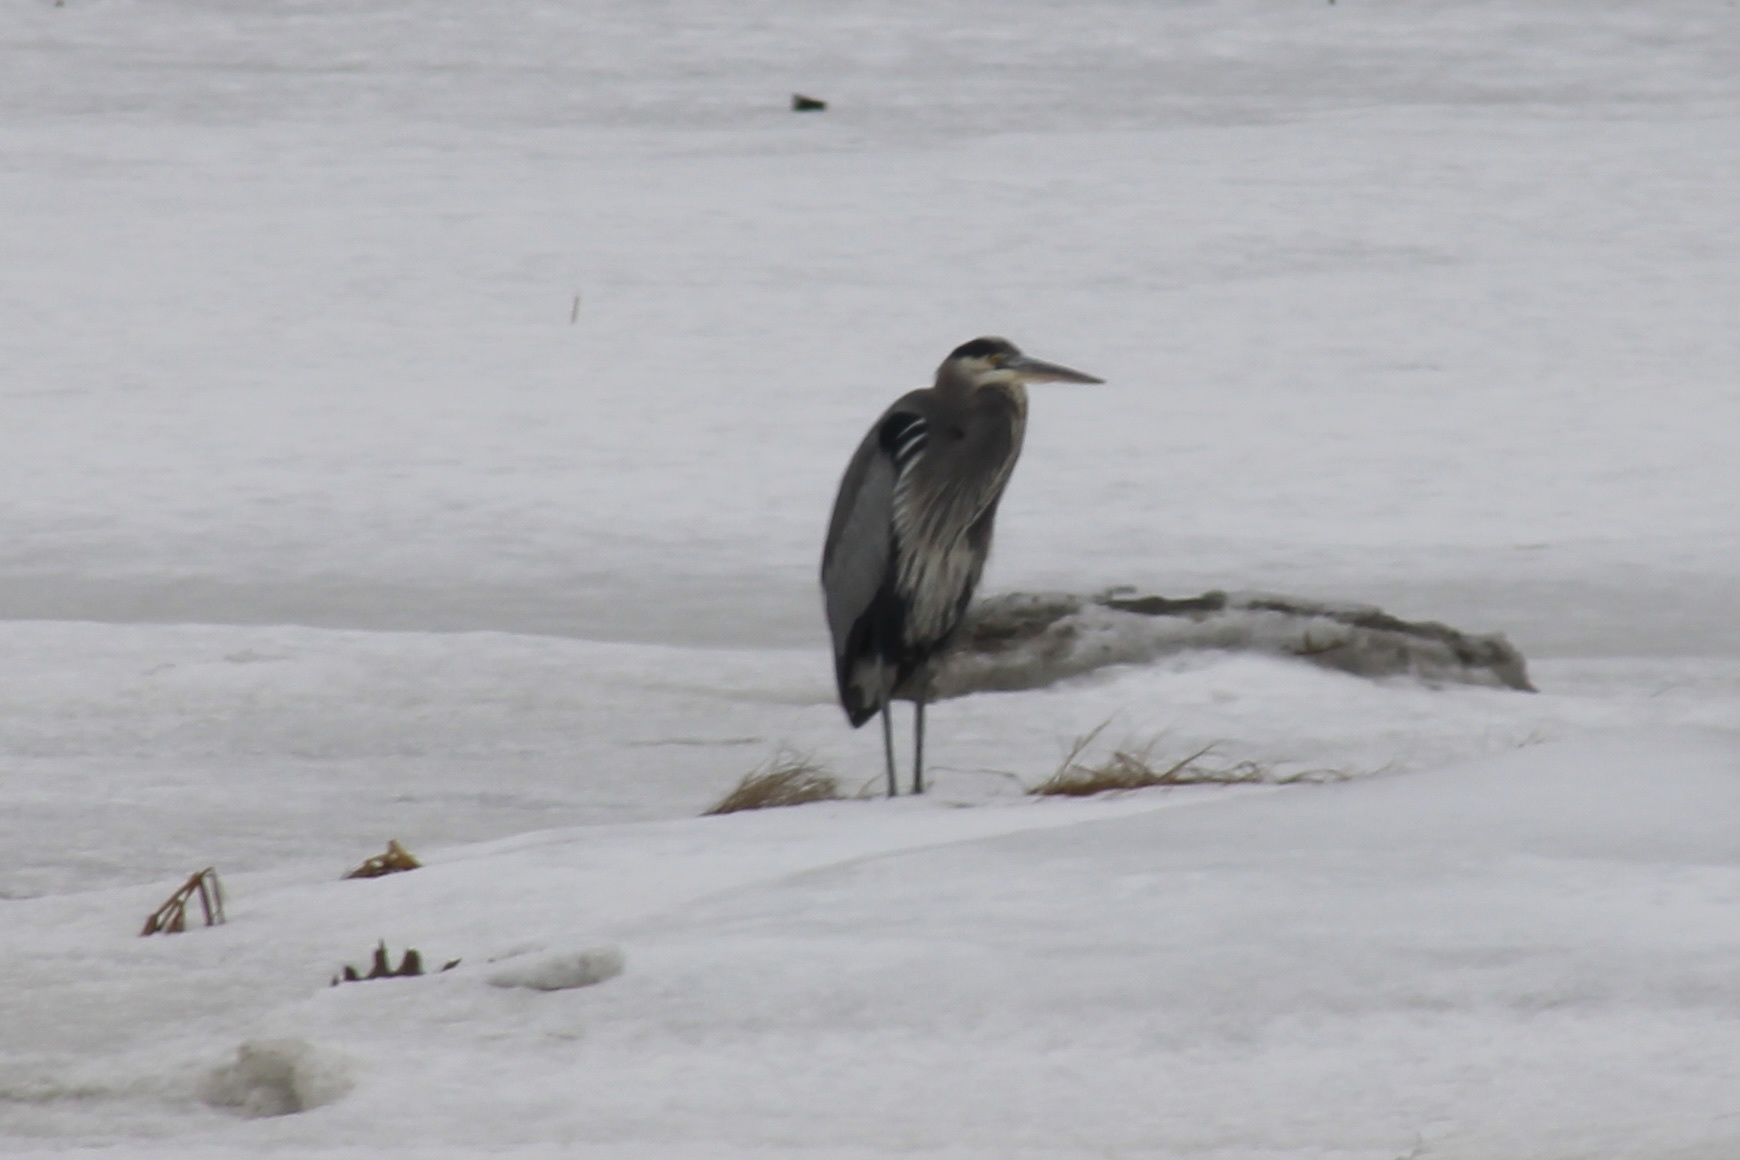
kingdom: Animalia
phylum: Chordata
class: Aves
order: Pelecaniformes
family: Ardeidae
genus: Ardea
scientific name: Ardea herodias
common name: Great blue heron
